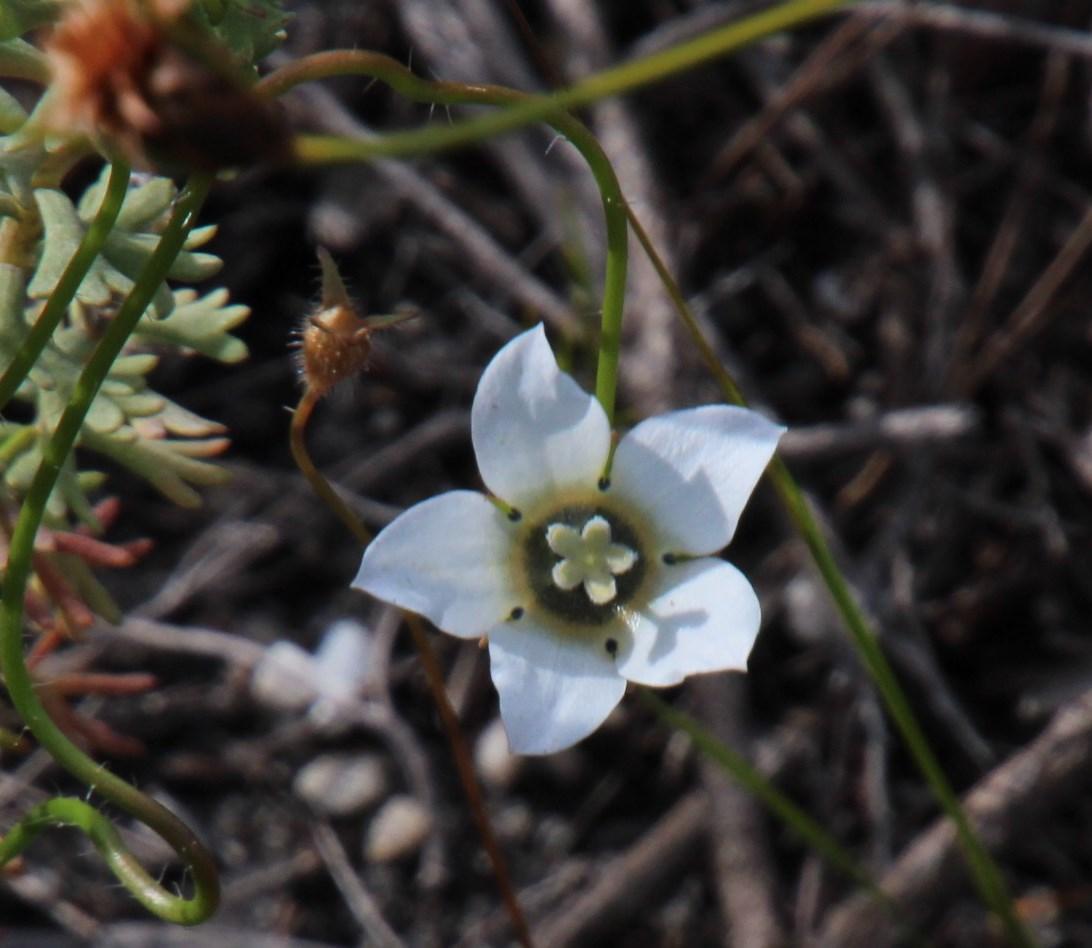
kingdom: Plantae
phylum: Tracheophyta
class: Magnoliopsida
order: Asterales
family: Campanulaceae
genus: Wahlenbergia
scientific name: Wahlenbergia capensis
